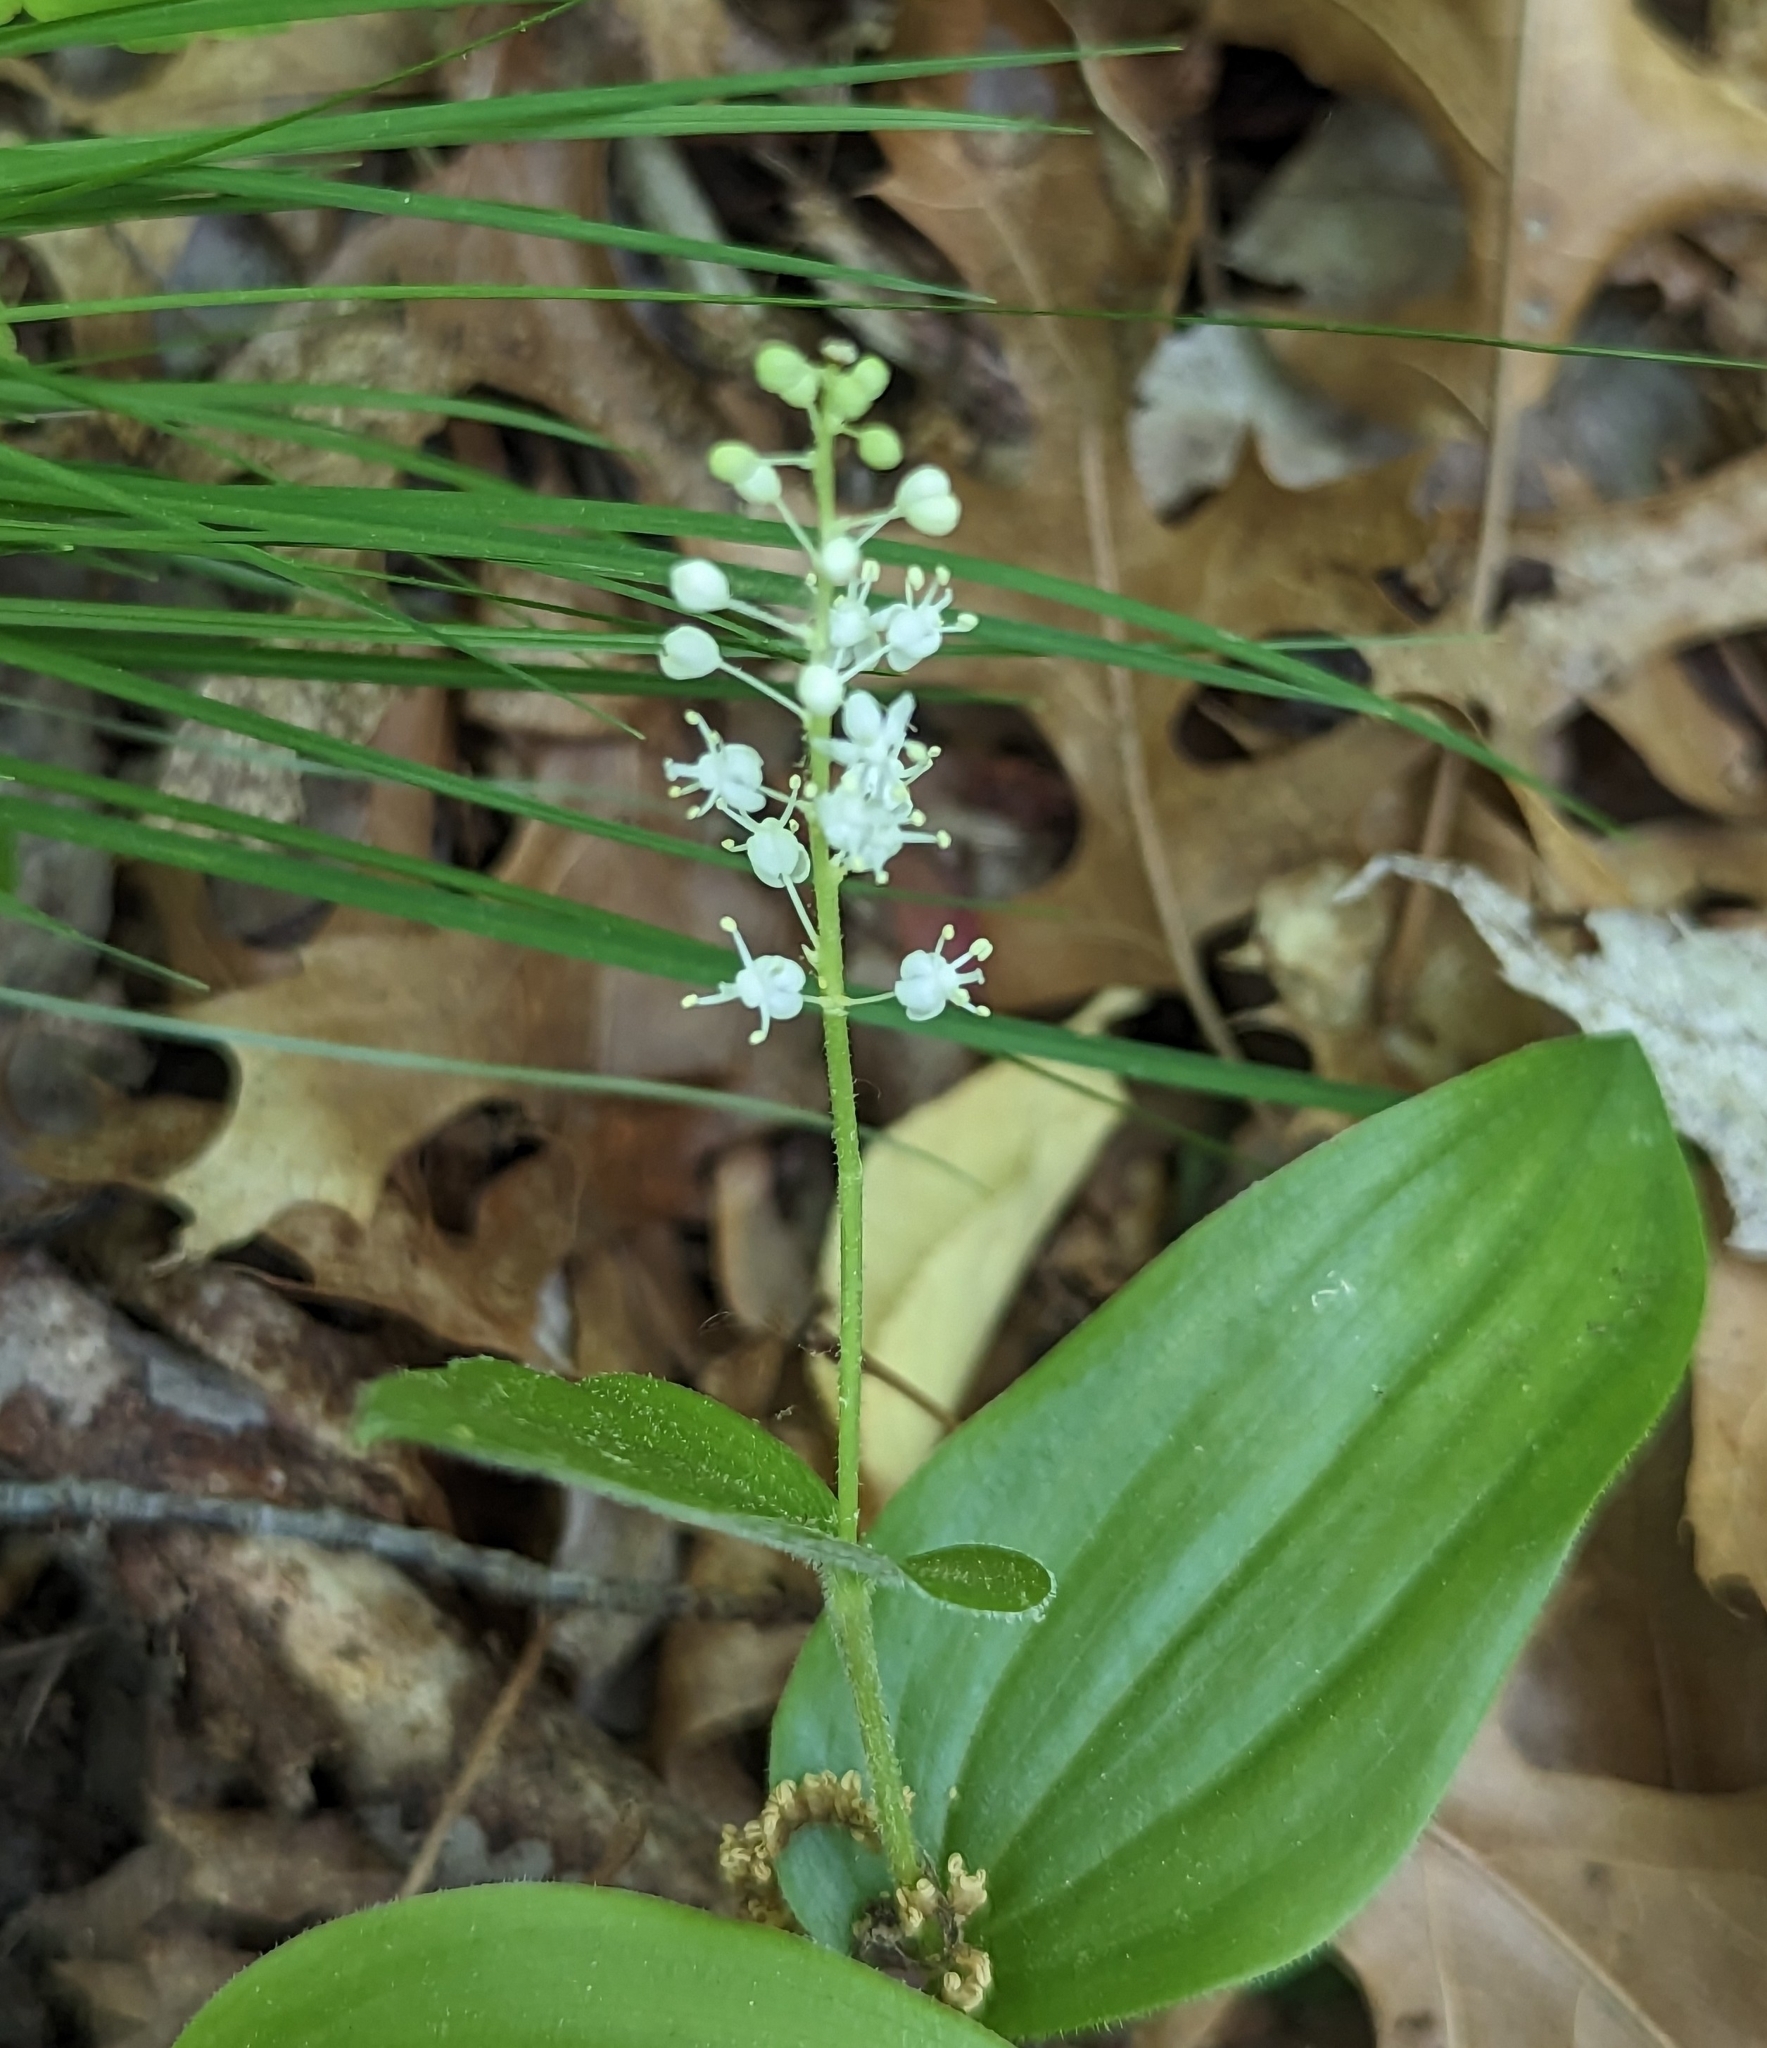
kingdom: Plantae
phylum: Tracheophyta
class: Liliopsida
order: Asparagales
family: Asparagaceae
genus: Maianthemum
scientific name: Maianthemum canadense
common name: False lily-of-the-valley
